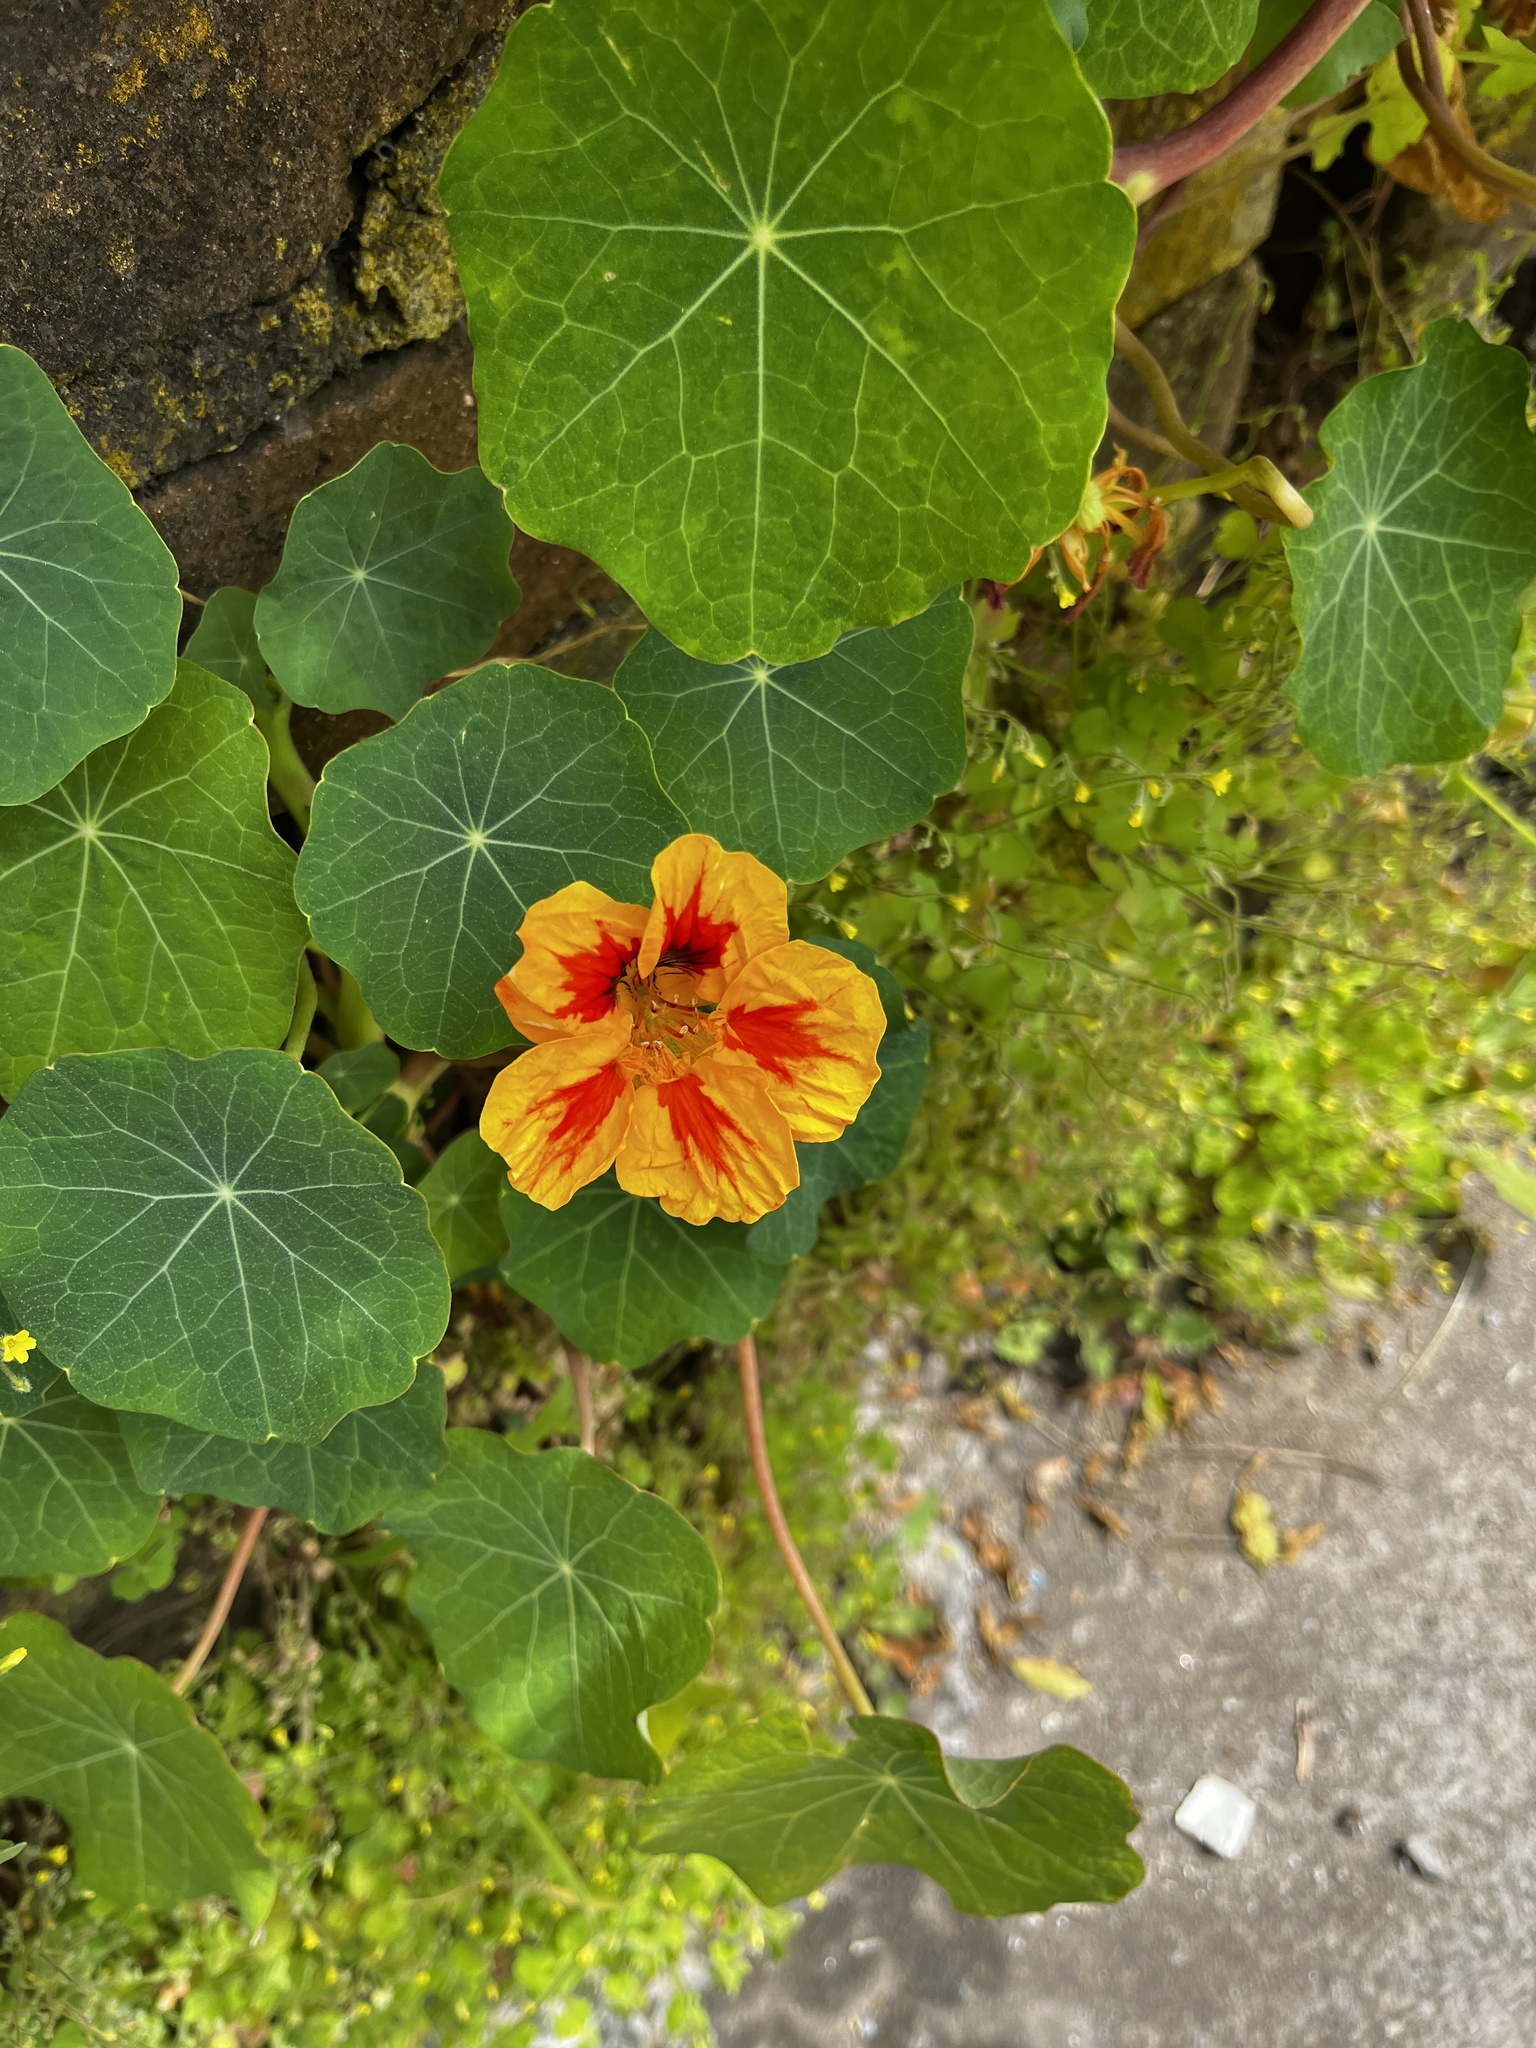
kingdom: Plantae
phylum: Tracheophyta
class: Magnoliopsida
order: Brassicales
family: Tropaeolaceae
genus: Tropaeolum
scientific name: Tropaeolum majus
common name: Nasturtium
